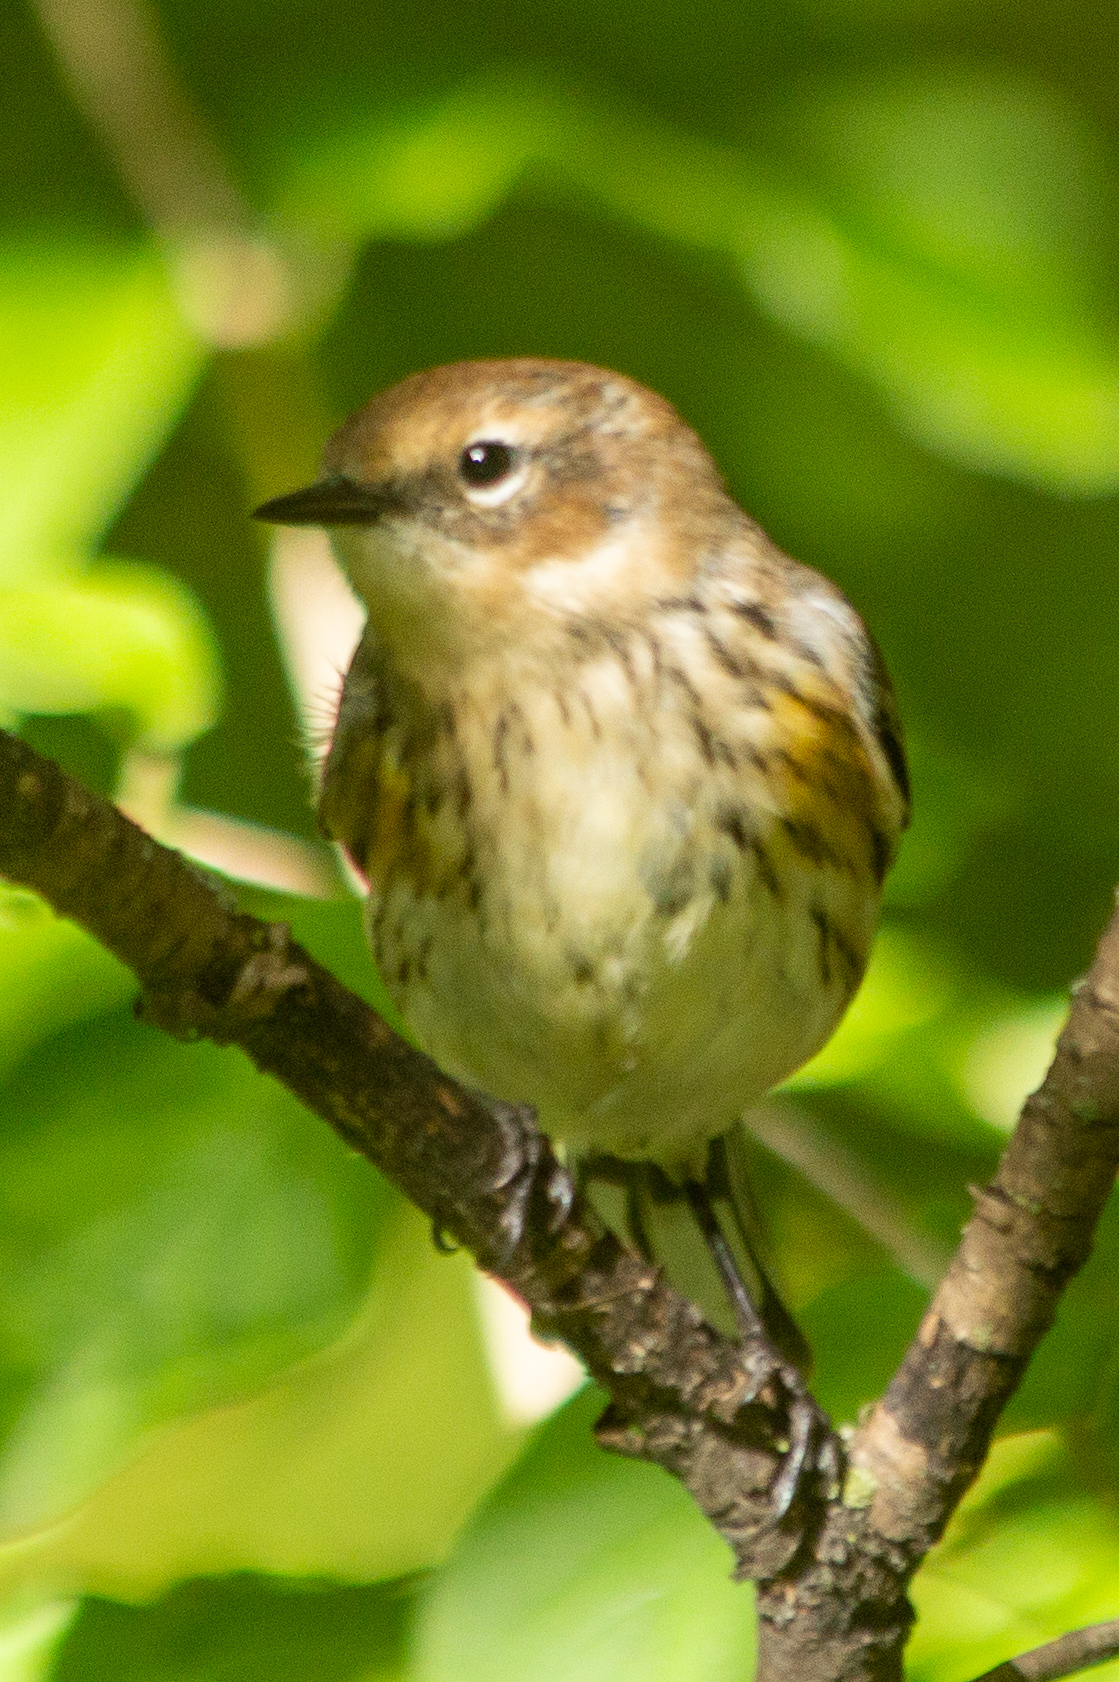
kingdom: Animalia
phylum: Chordata
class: Aves
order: Passeriformes
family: Parulidae
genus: Setophaga
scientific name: Setophaga coronata
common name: Myrtle warbler
